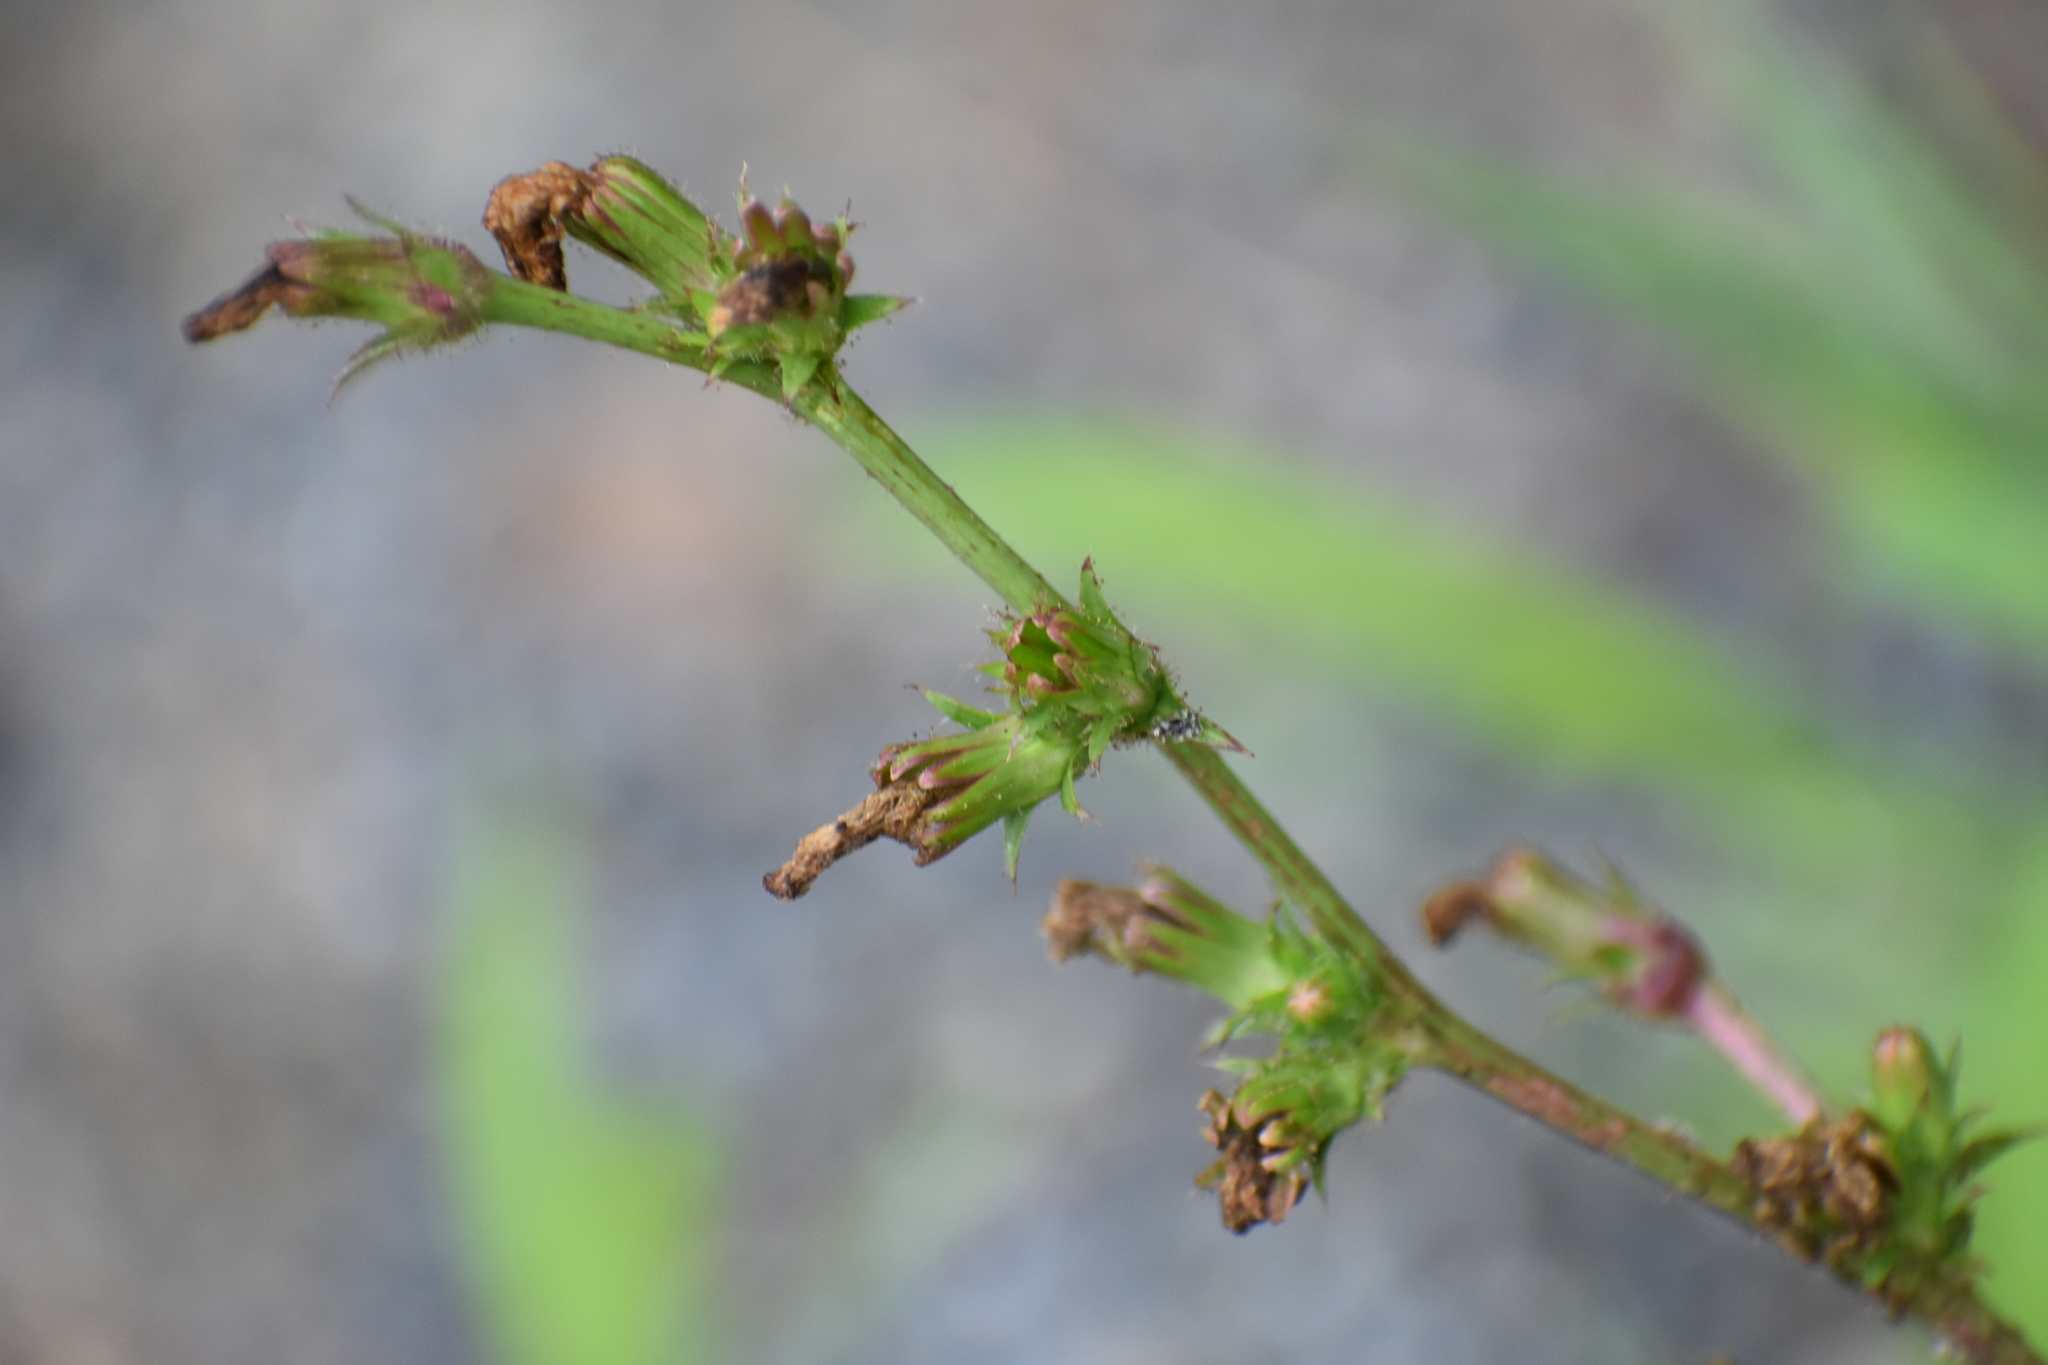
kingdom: Plantae
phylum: Tracheophyta
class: Magnoliopsida
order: Asterales
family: Asteraceae
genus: Cichorium
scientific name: Cichorium intybus
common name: Chicory
